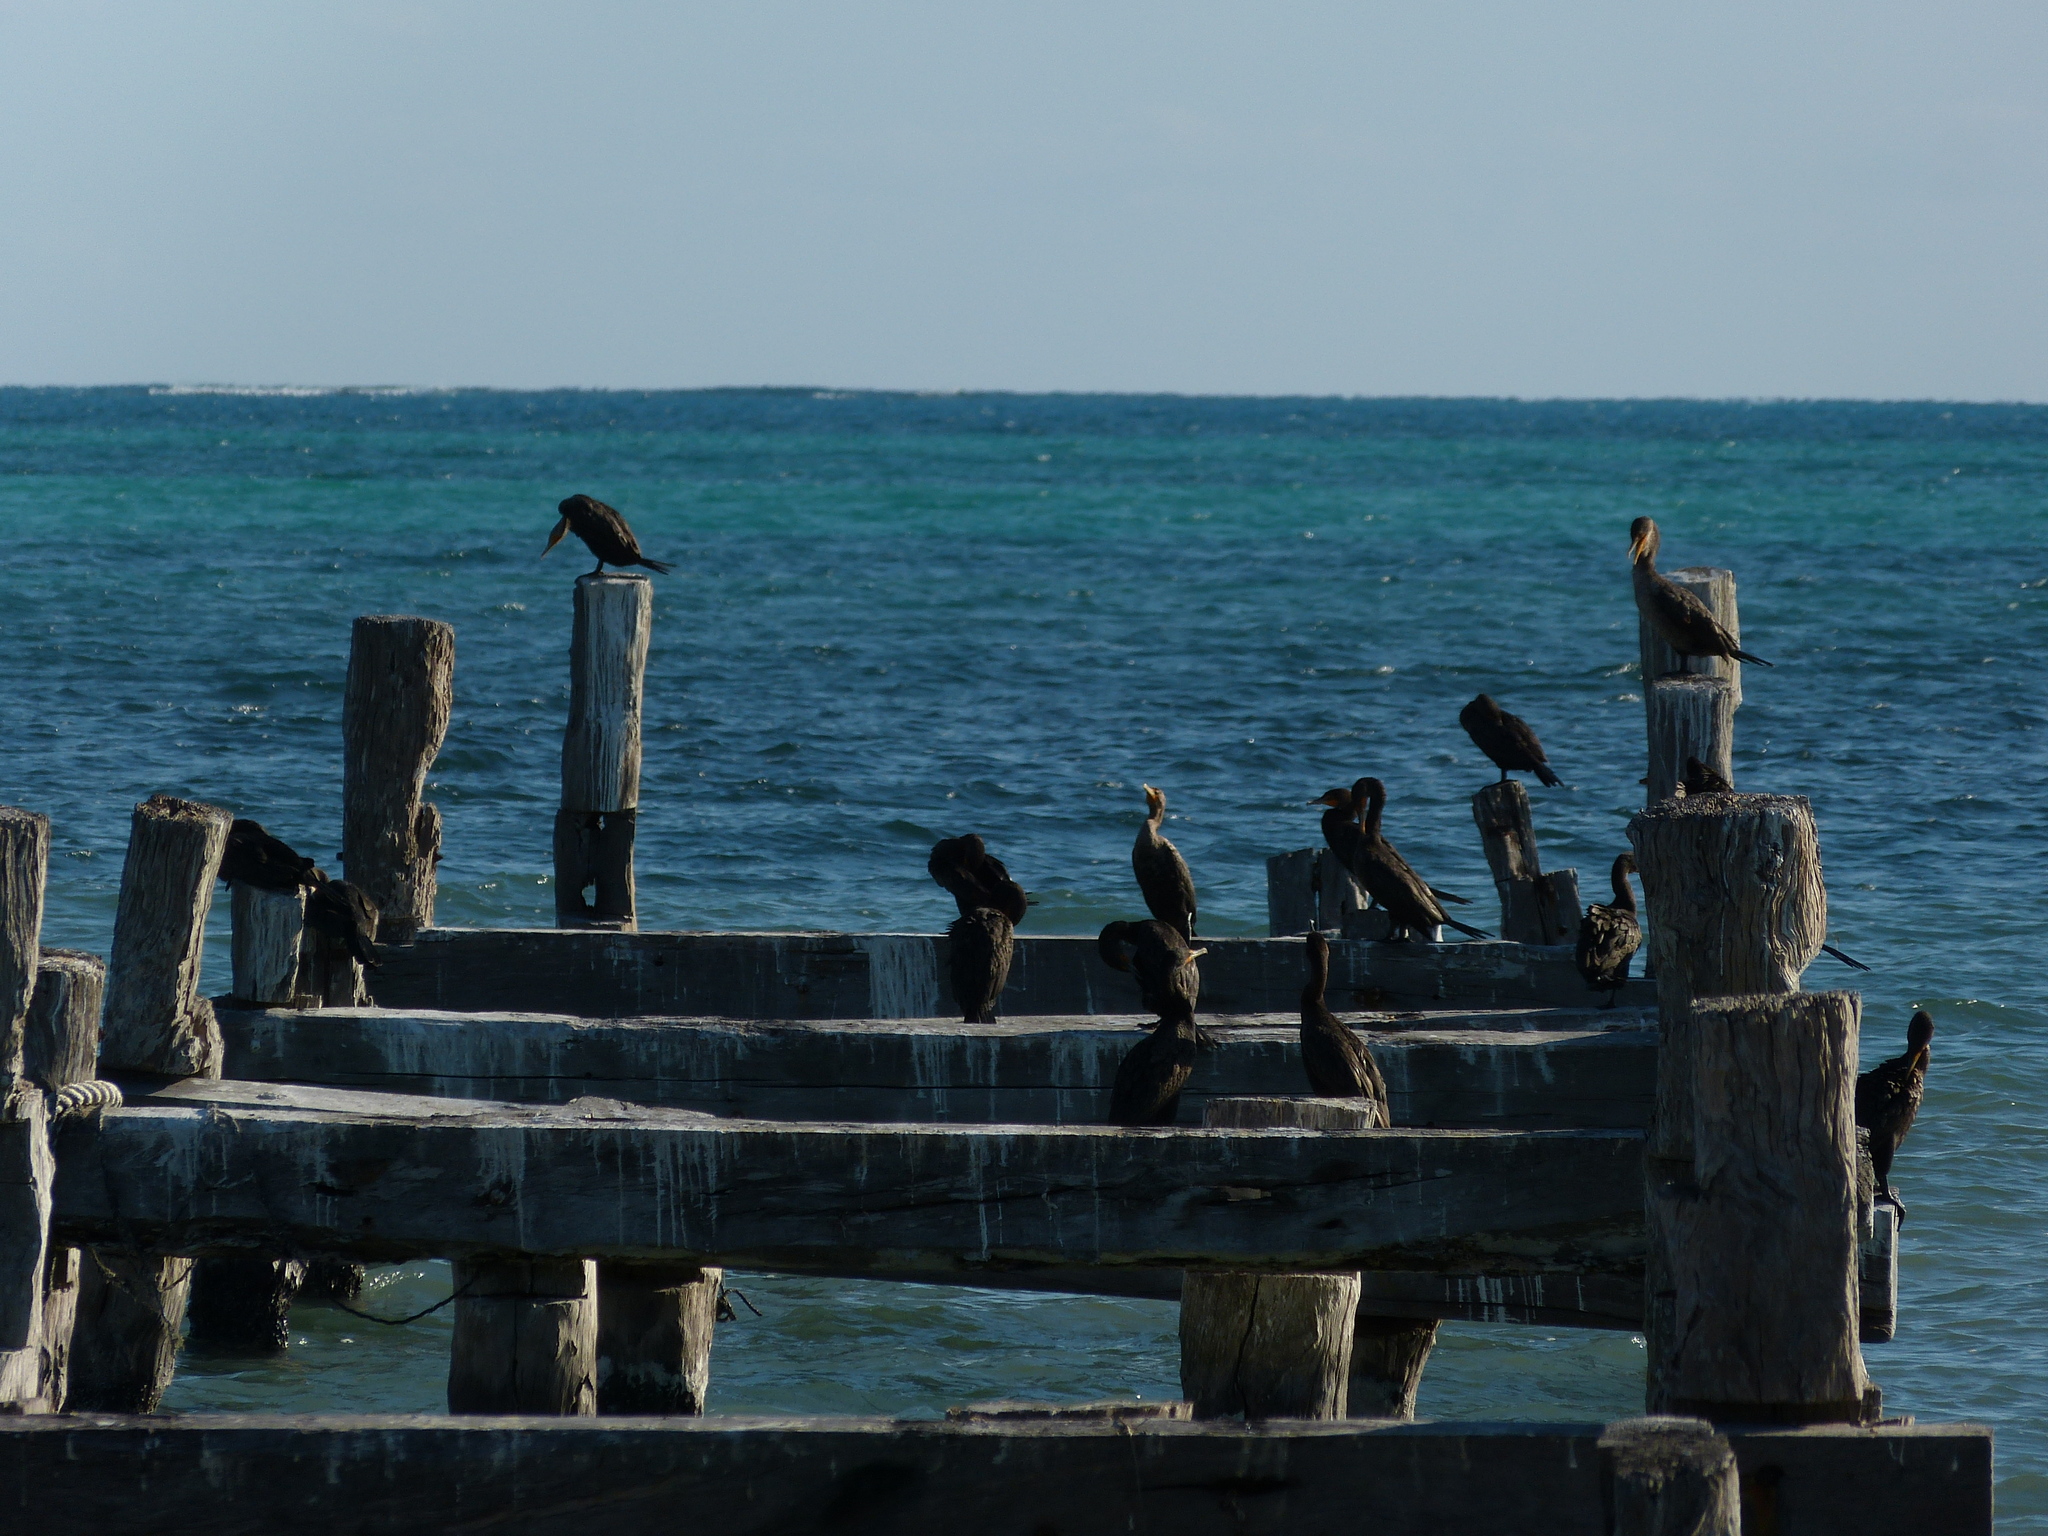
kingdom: Animalia
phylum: Chordata
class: Aves
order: Suliformes
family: Phalacrocoracidae
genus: Phalacrocorax
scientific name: Phalacrocorax auritus
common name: Double-crested cormorant
